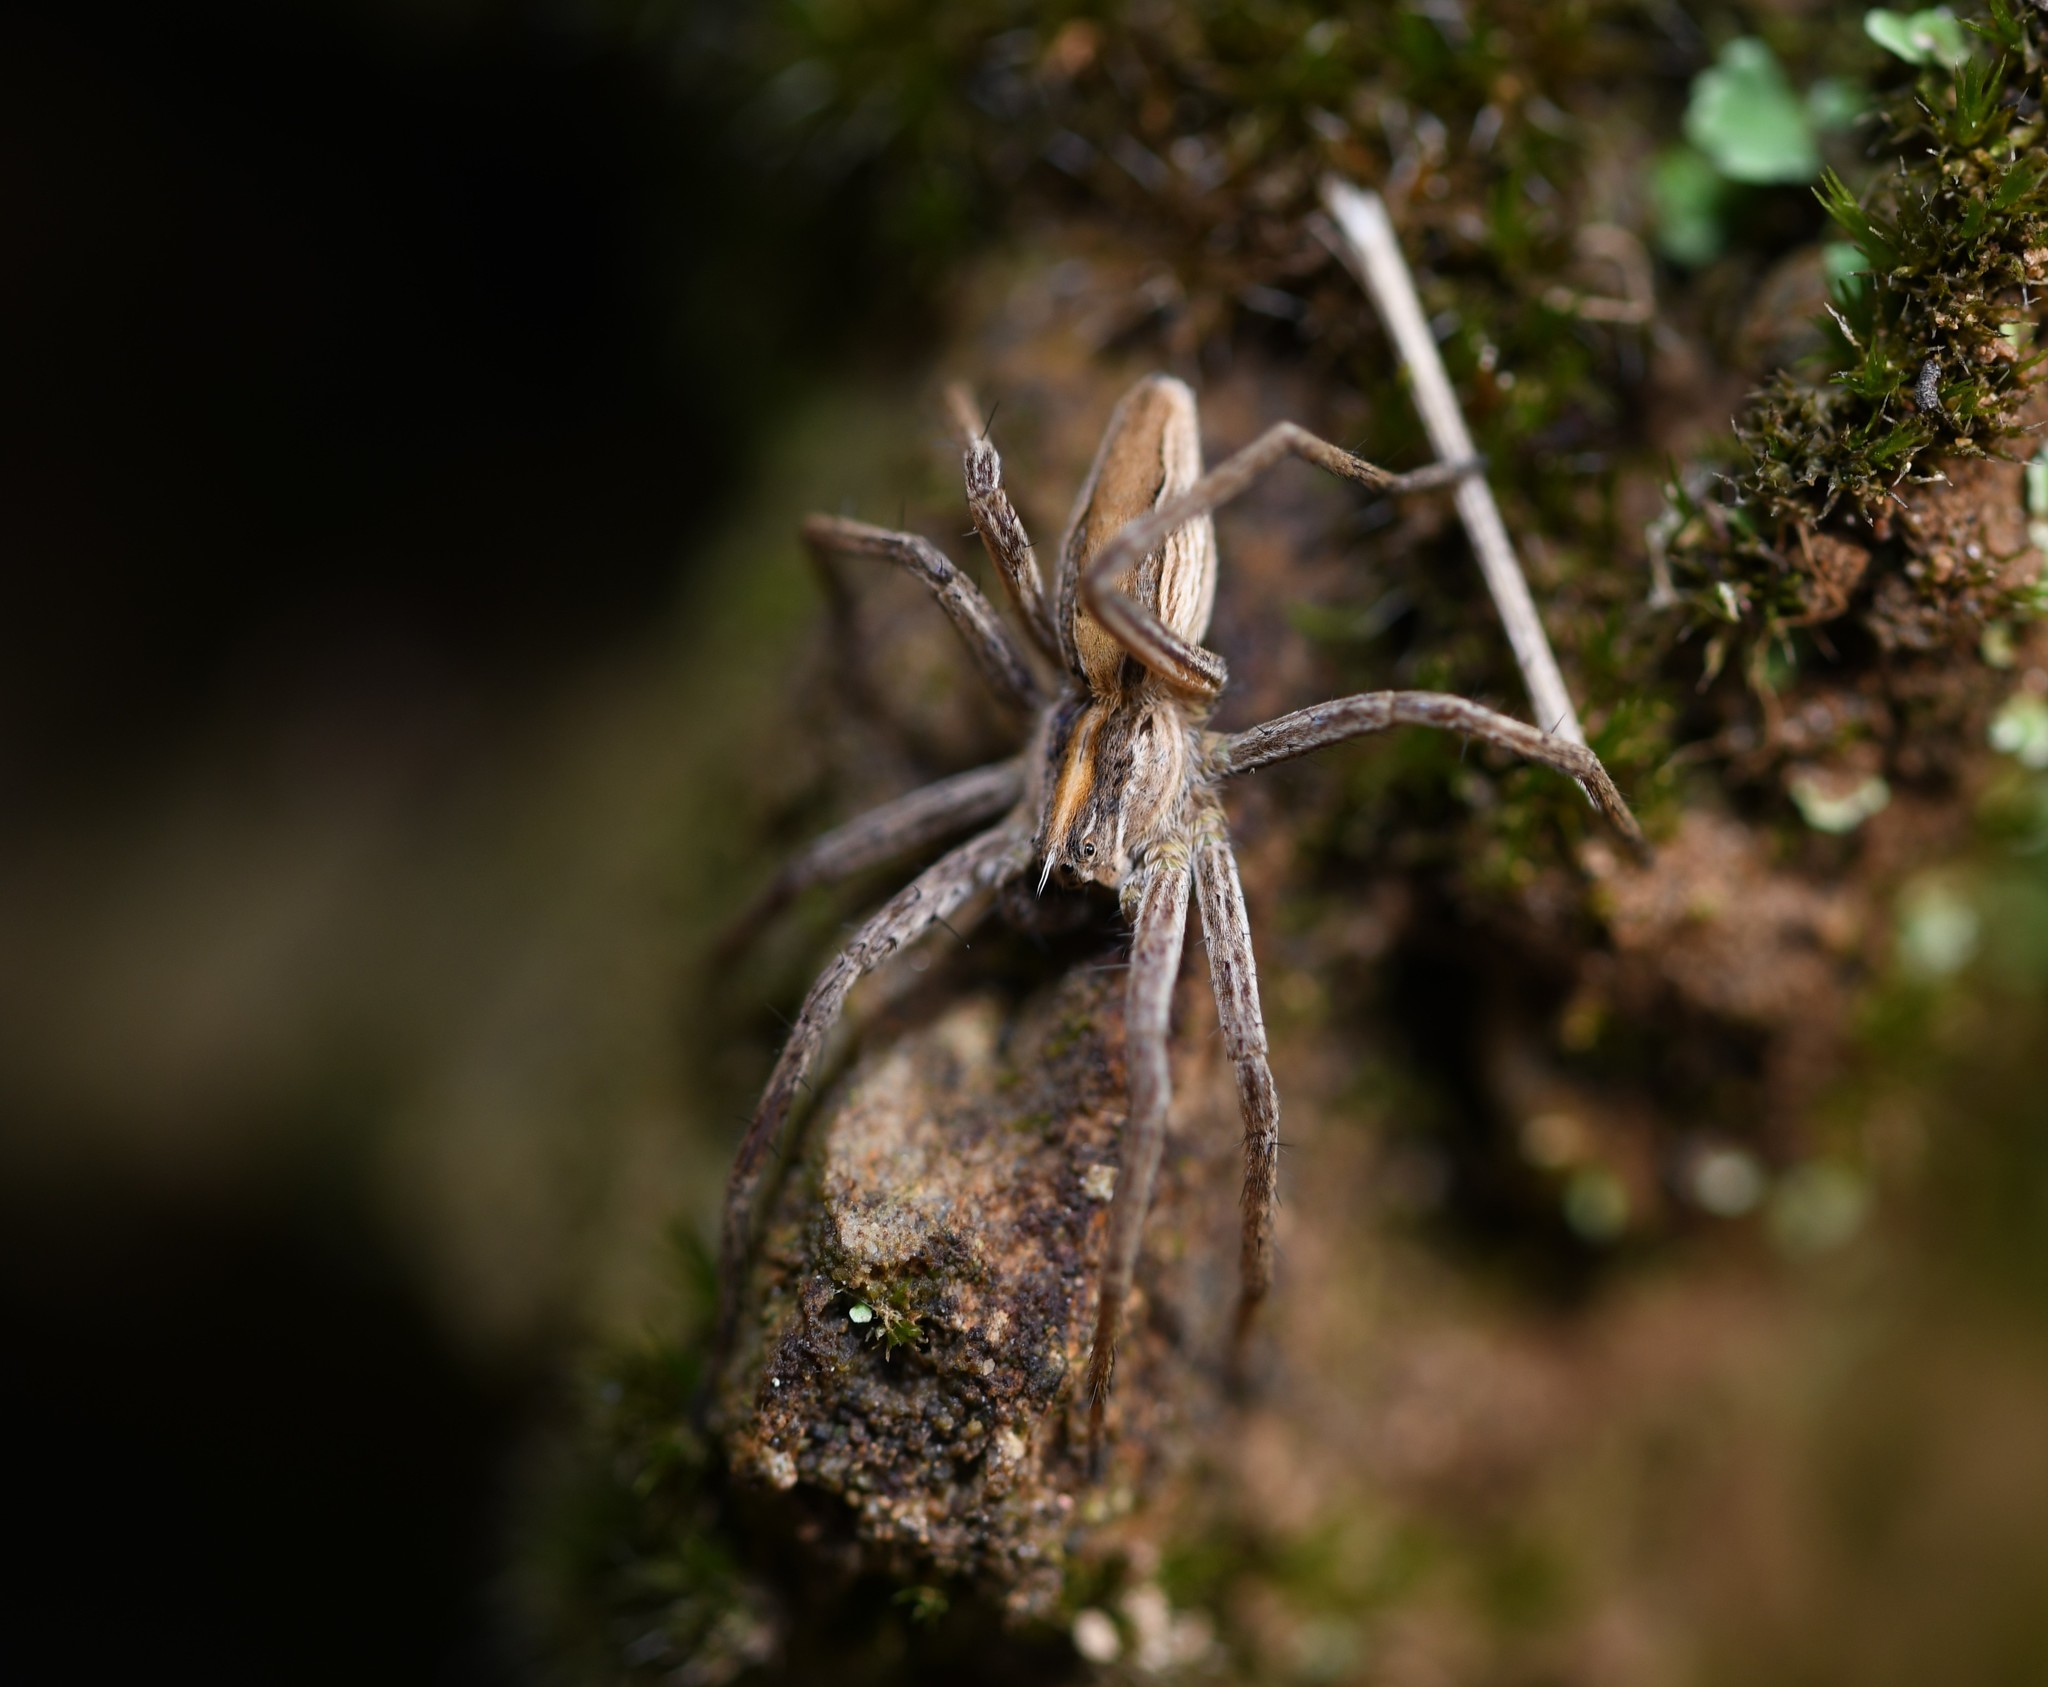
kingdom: Animalia
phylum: Arthropoda
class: Arachnida
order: Araneae
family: Pisauridae
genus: Pisaura
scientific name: Pisaura mirabilis
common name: Tent spider
